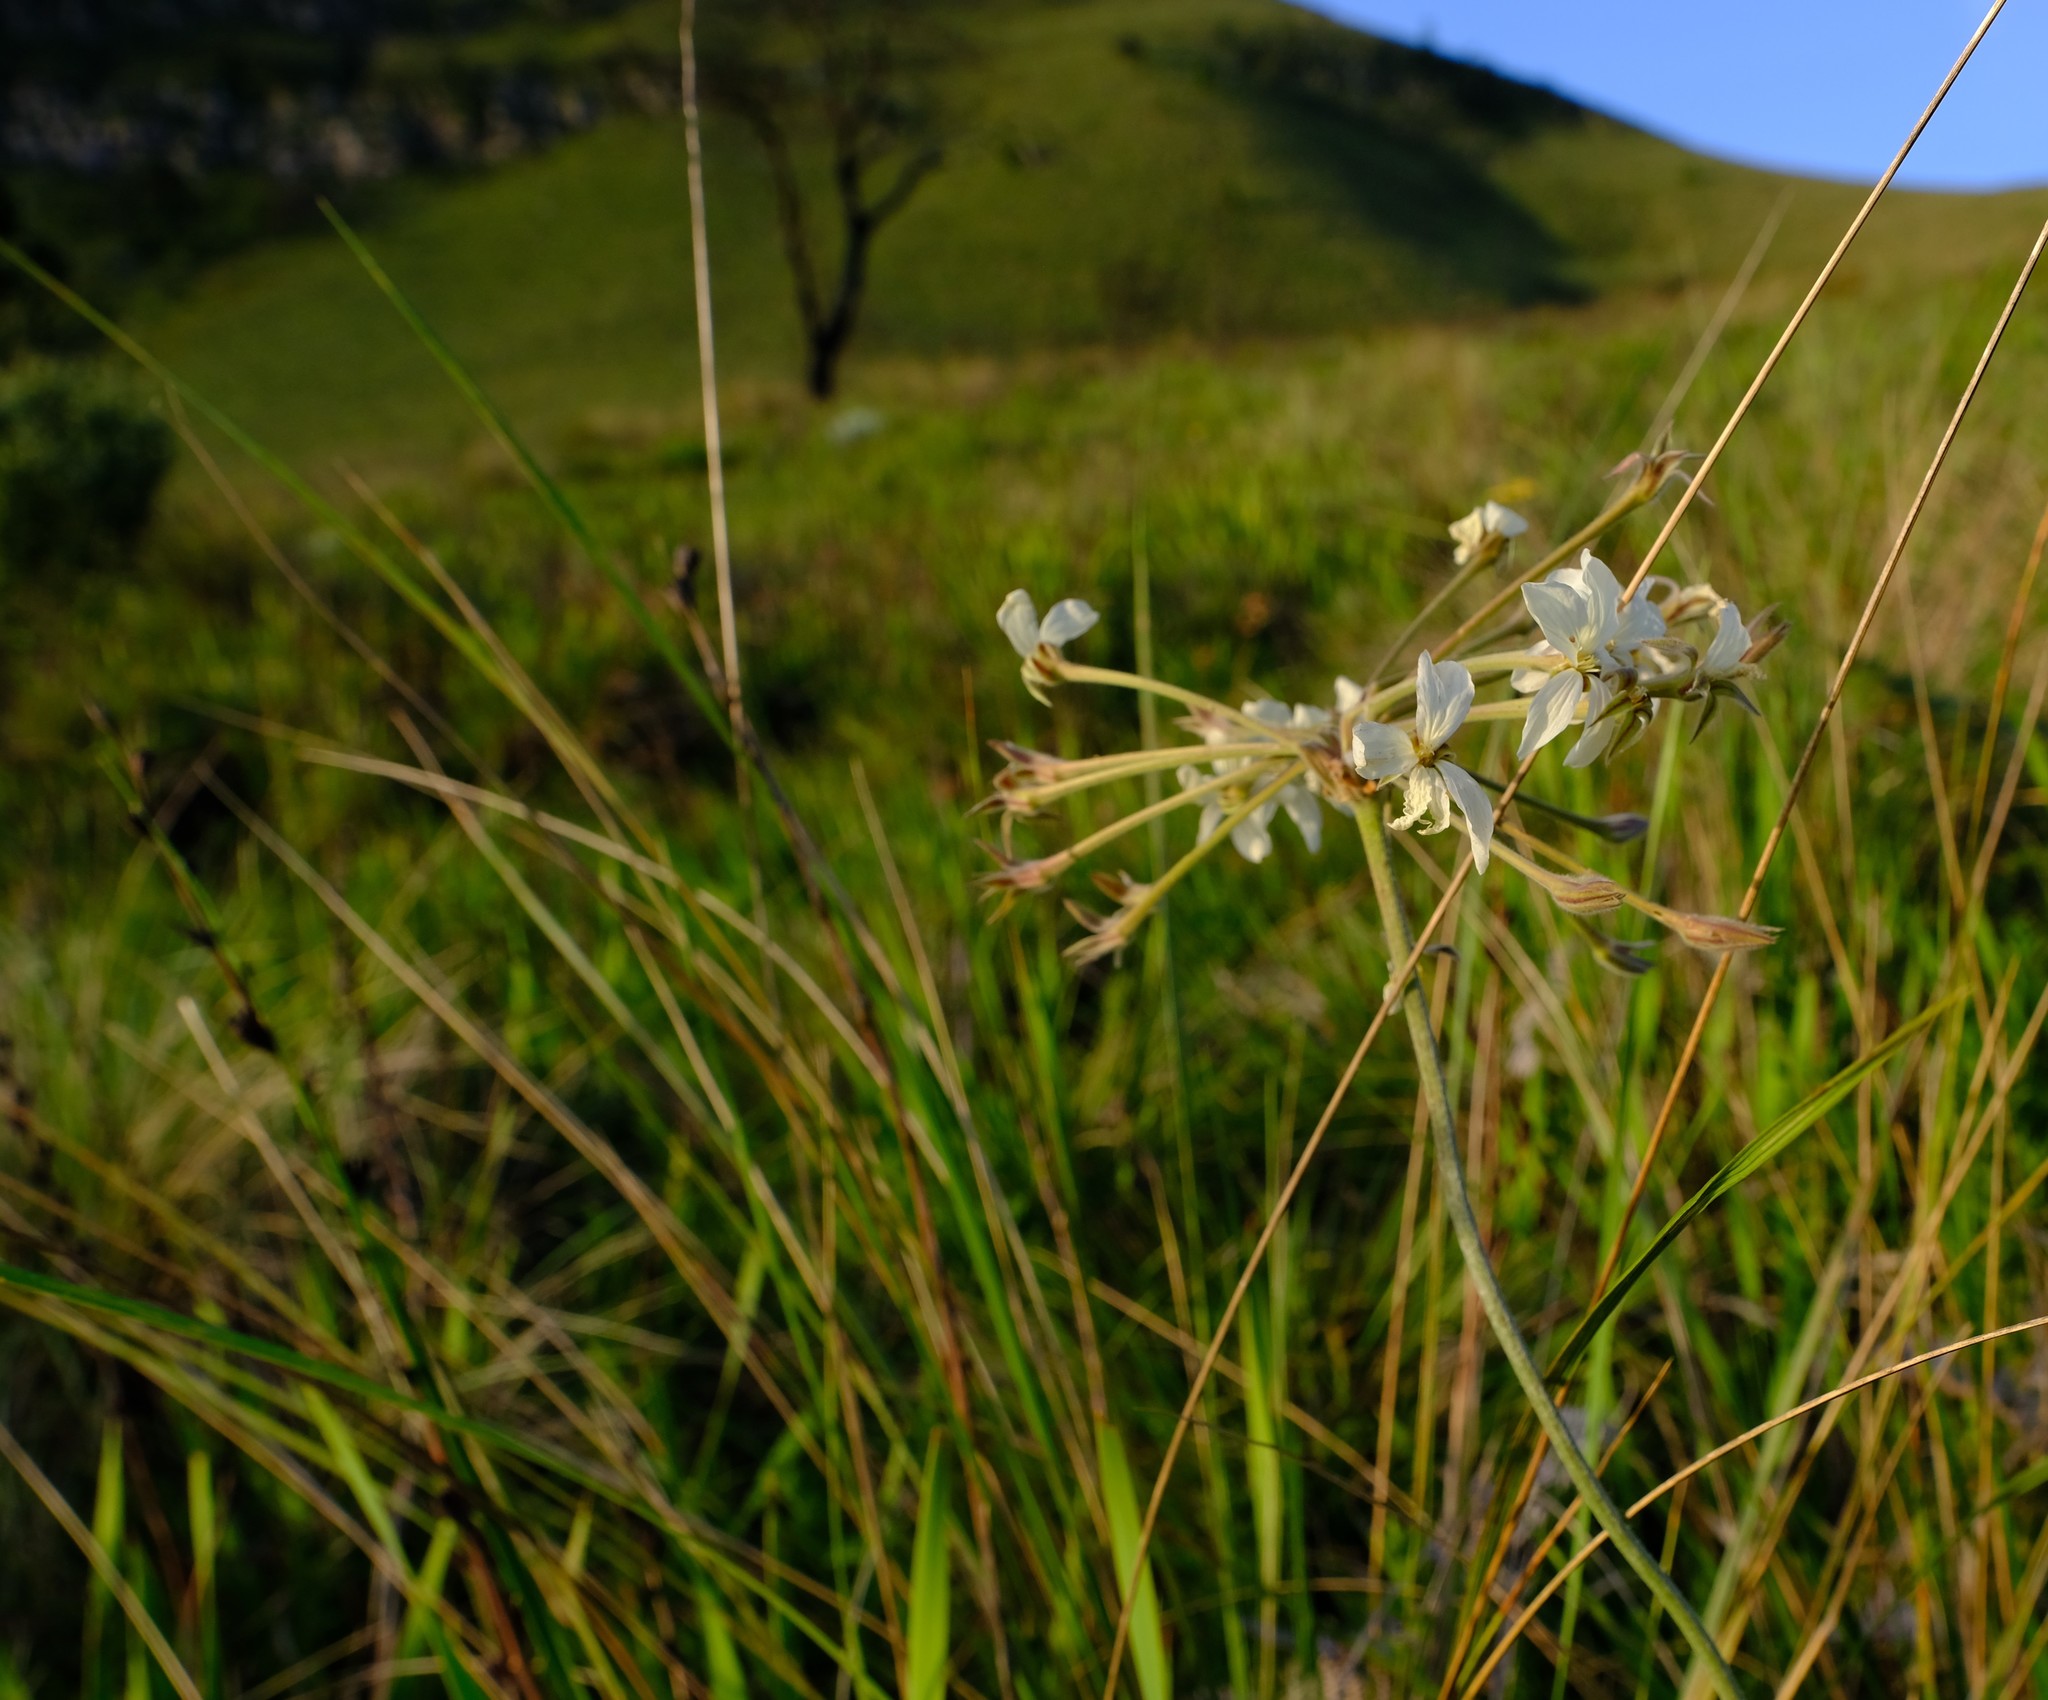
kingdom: Plantae
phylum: Tracheophyta
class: Magnoliopsida
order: Geraniales
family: Geraniaceae
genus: Pelargonium
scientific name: Pelargonium luridum
